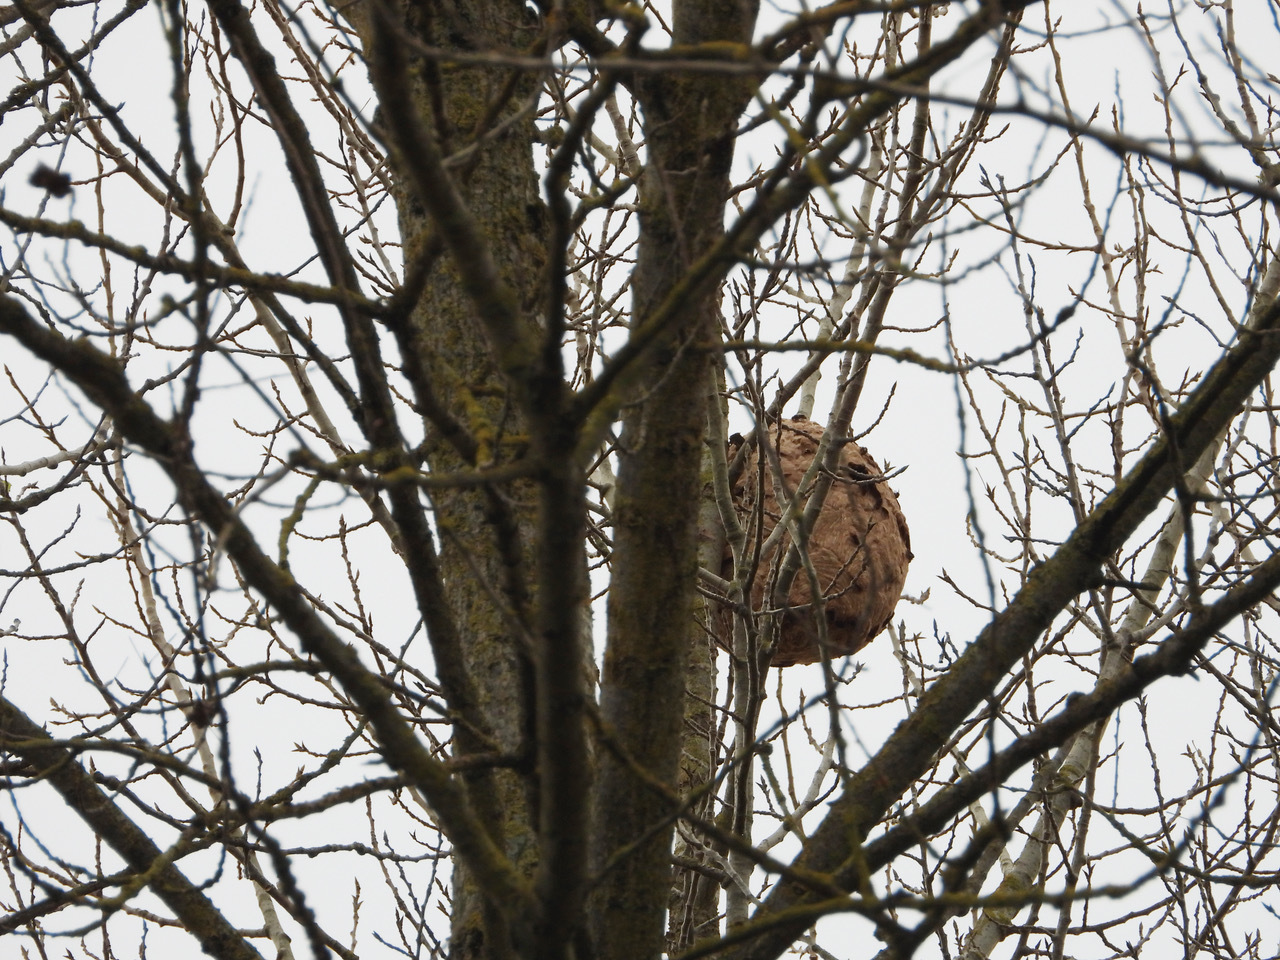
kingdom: Animalia
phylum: Arthropoda
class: Insecta
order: Hymenoptera
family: Vespidae
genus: Vespa
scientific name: Vespa velutina
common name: Asian hornet
